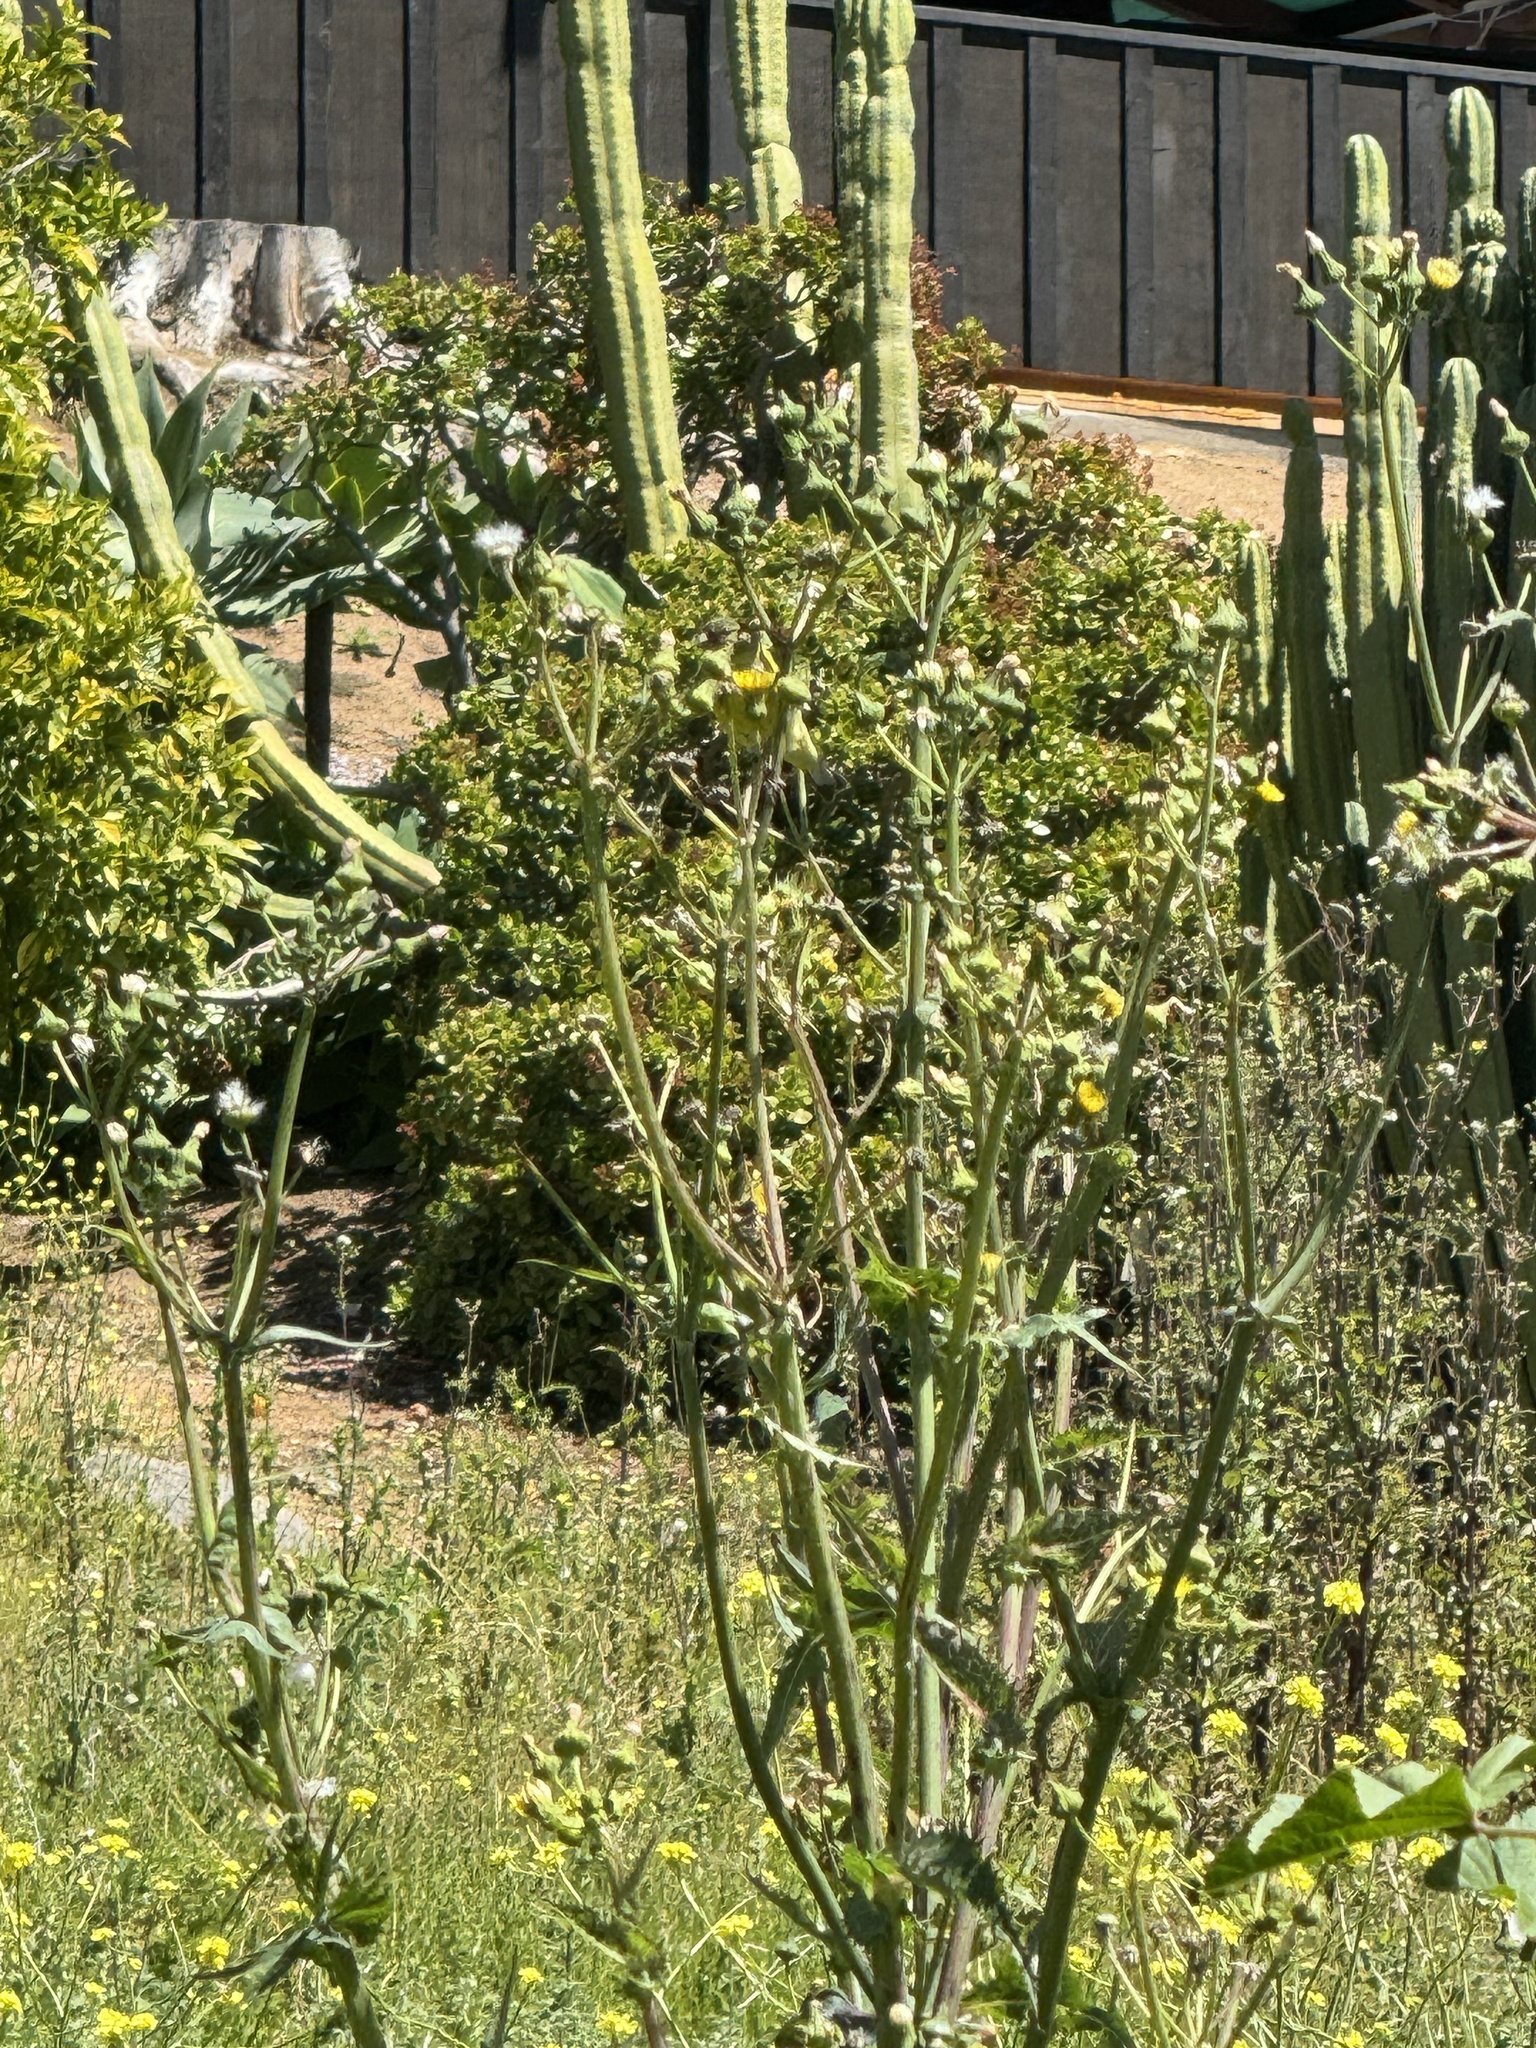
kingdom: Animalia
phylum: Chordata
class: Aves
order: Passeriformes
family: Fringillidae
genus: Spinus
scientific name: Spinus psaltria
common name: Lesser goldfinch
